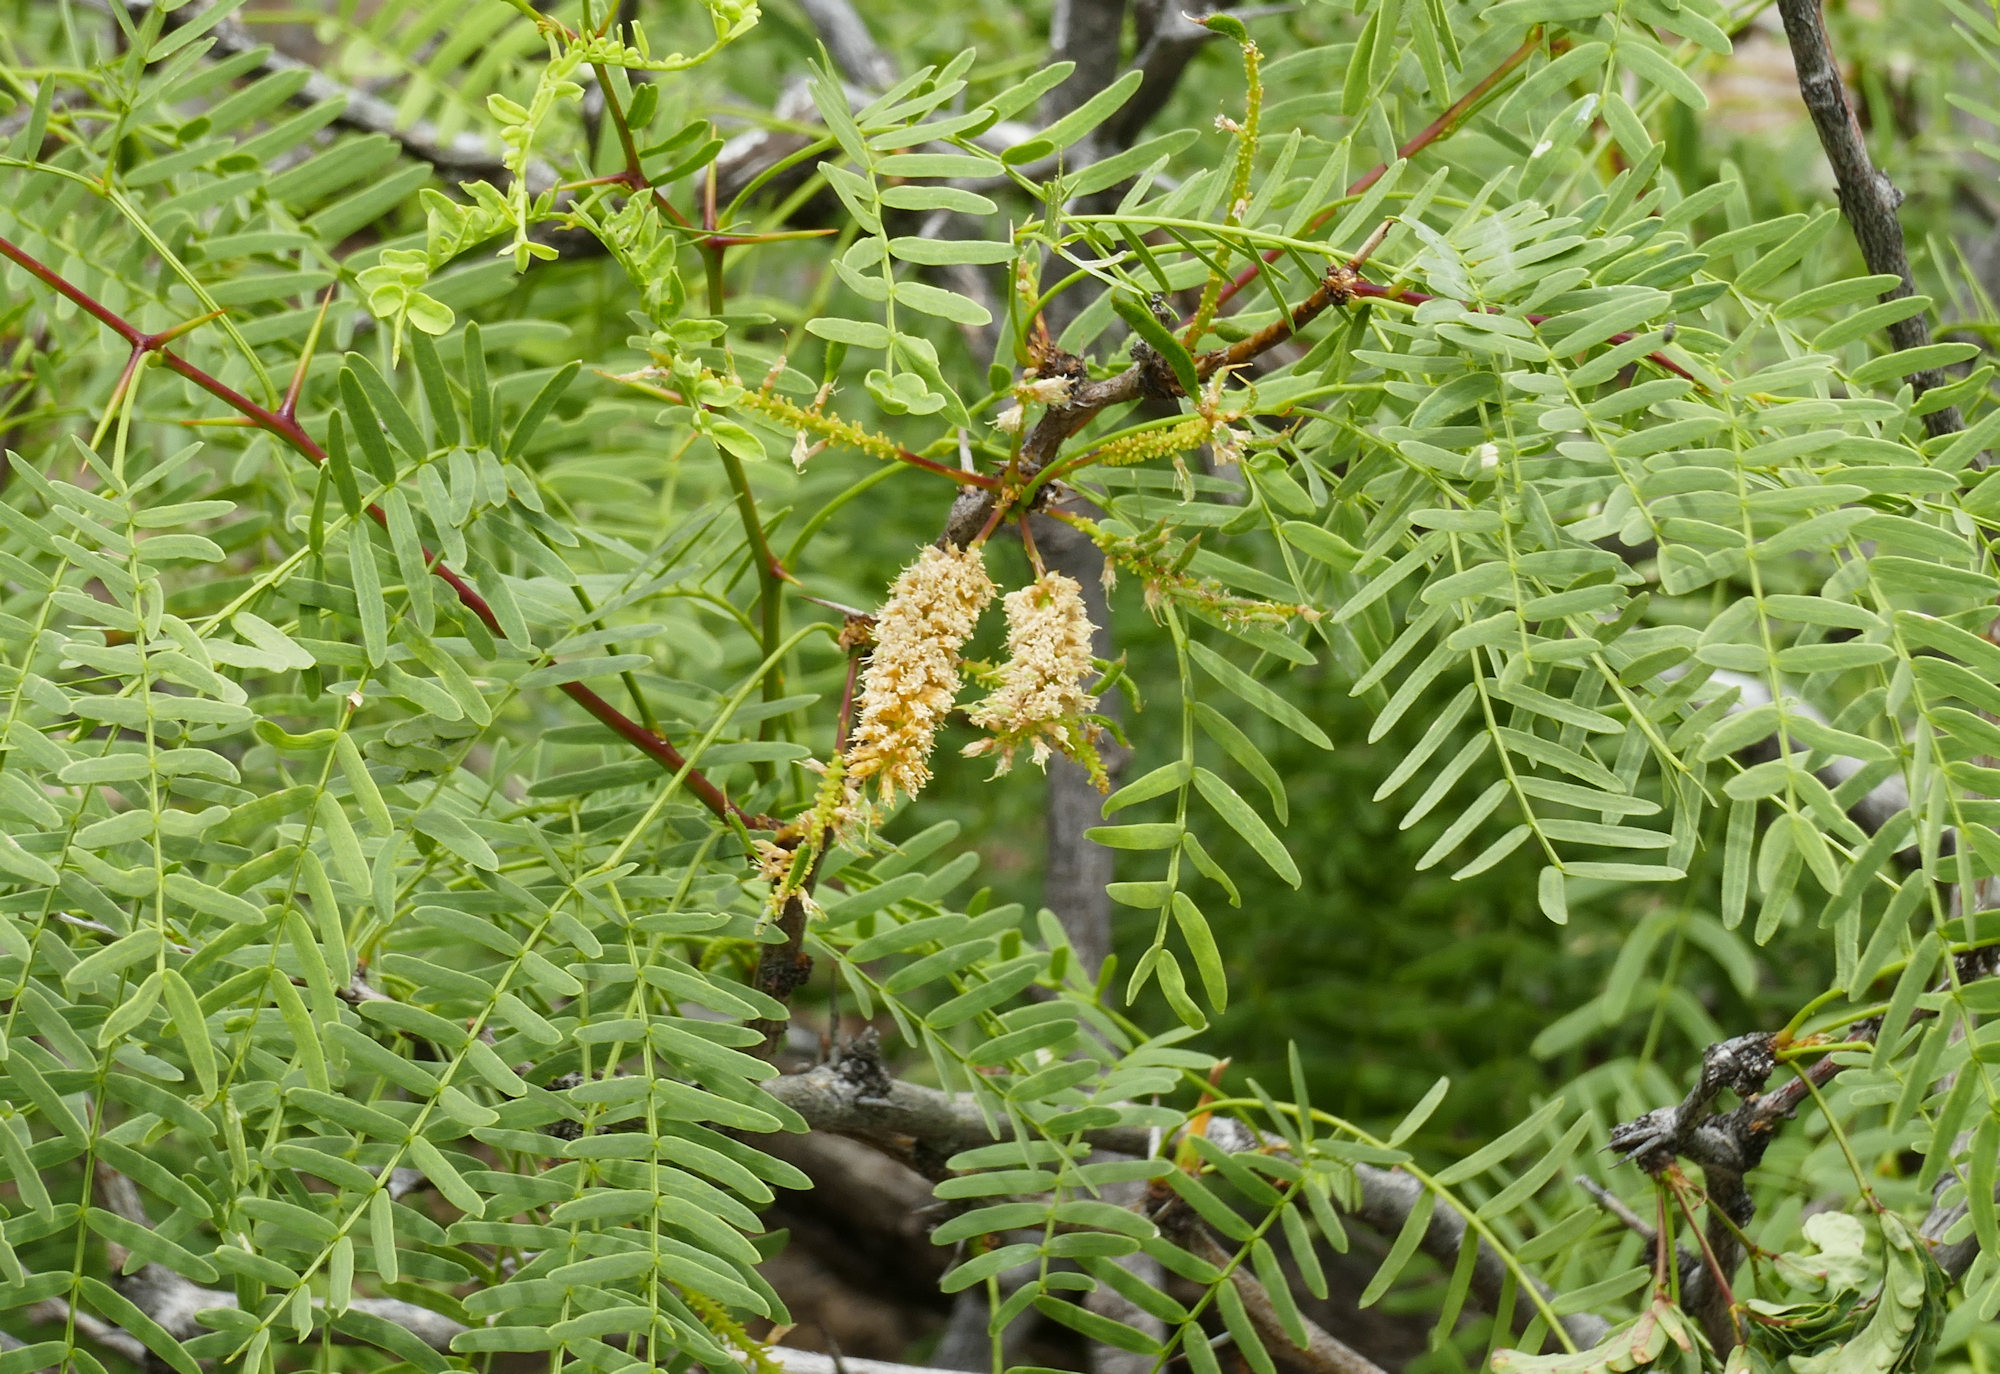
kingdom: Plantae
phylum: Tracheophyta
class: Magnoliopsida
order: Fabales
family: Fabaceae
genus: Prosopis
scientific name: Prosopis glandulosa
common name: Honey mesquite
